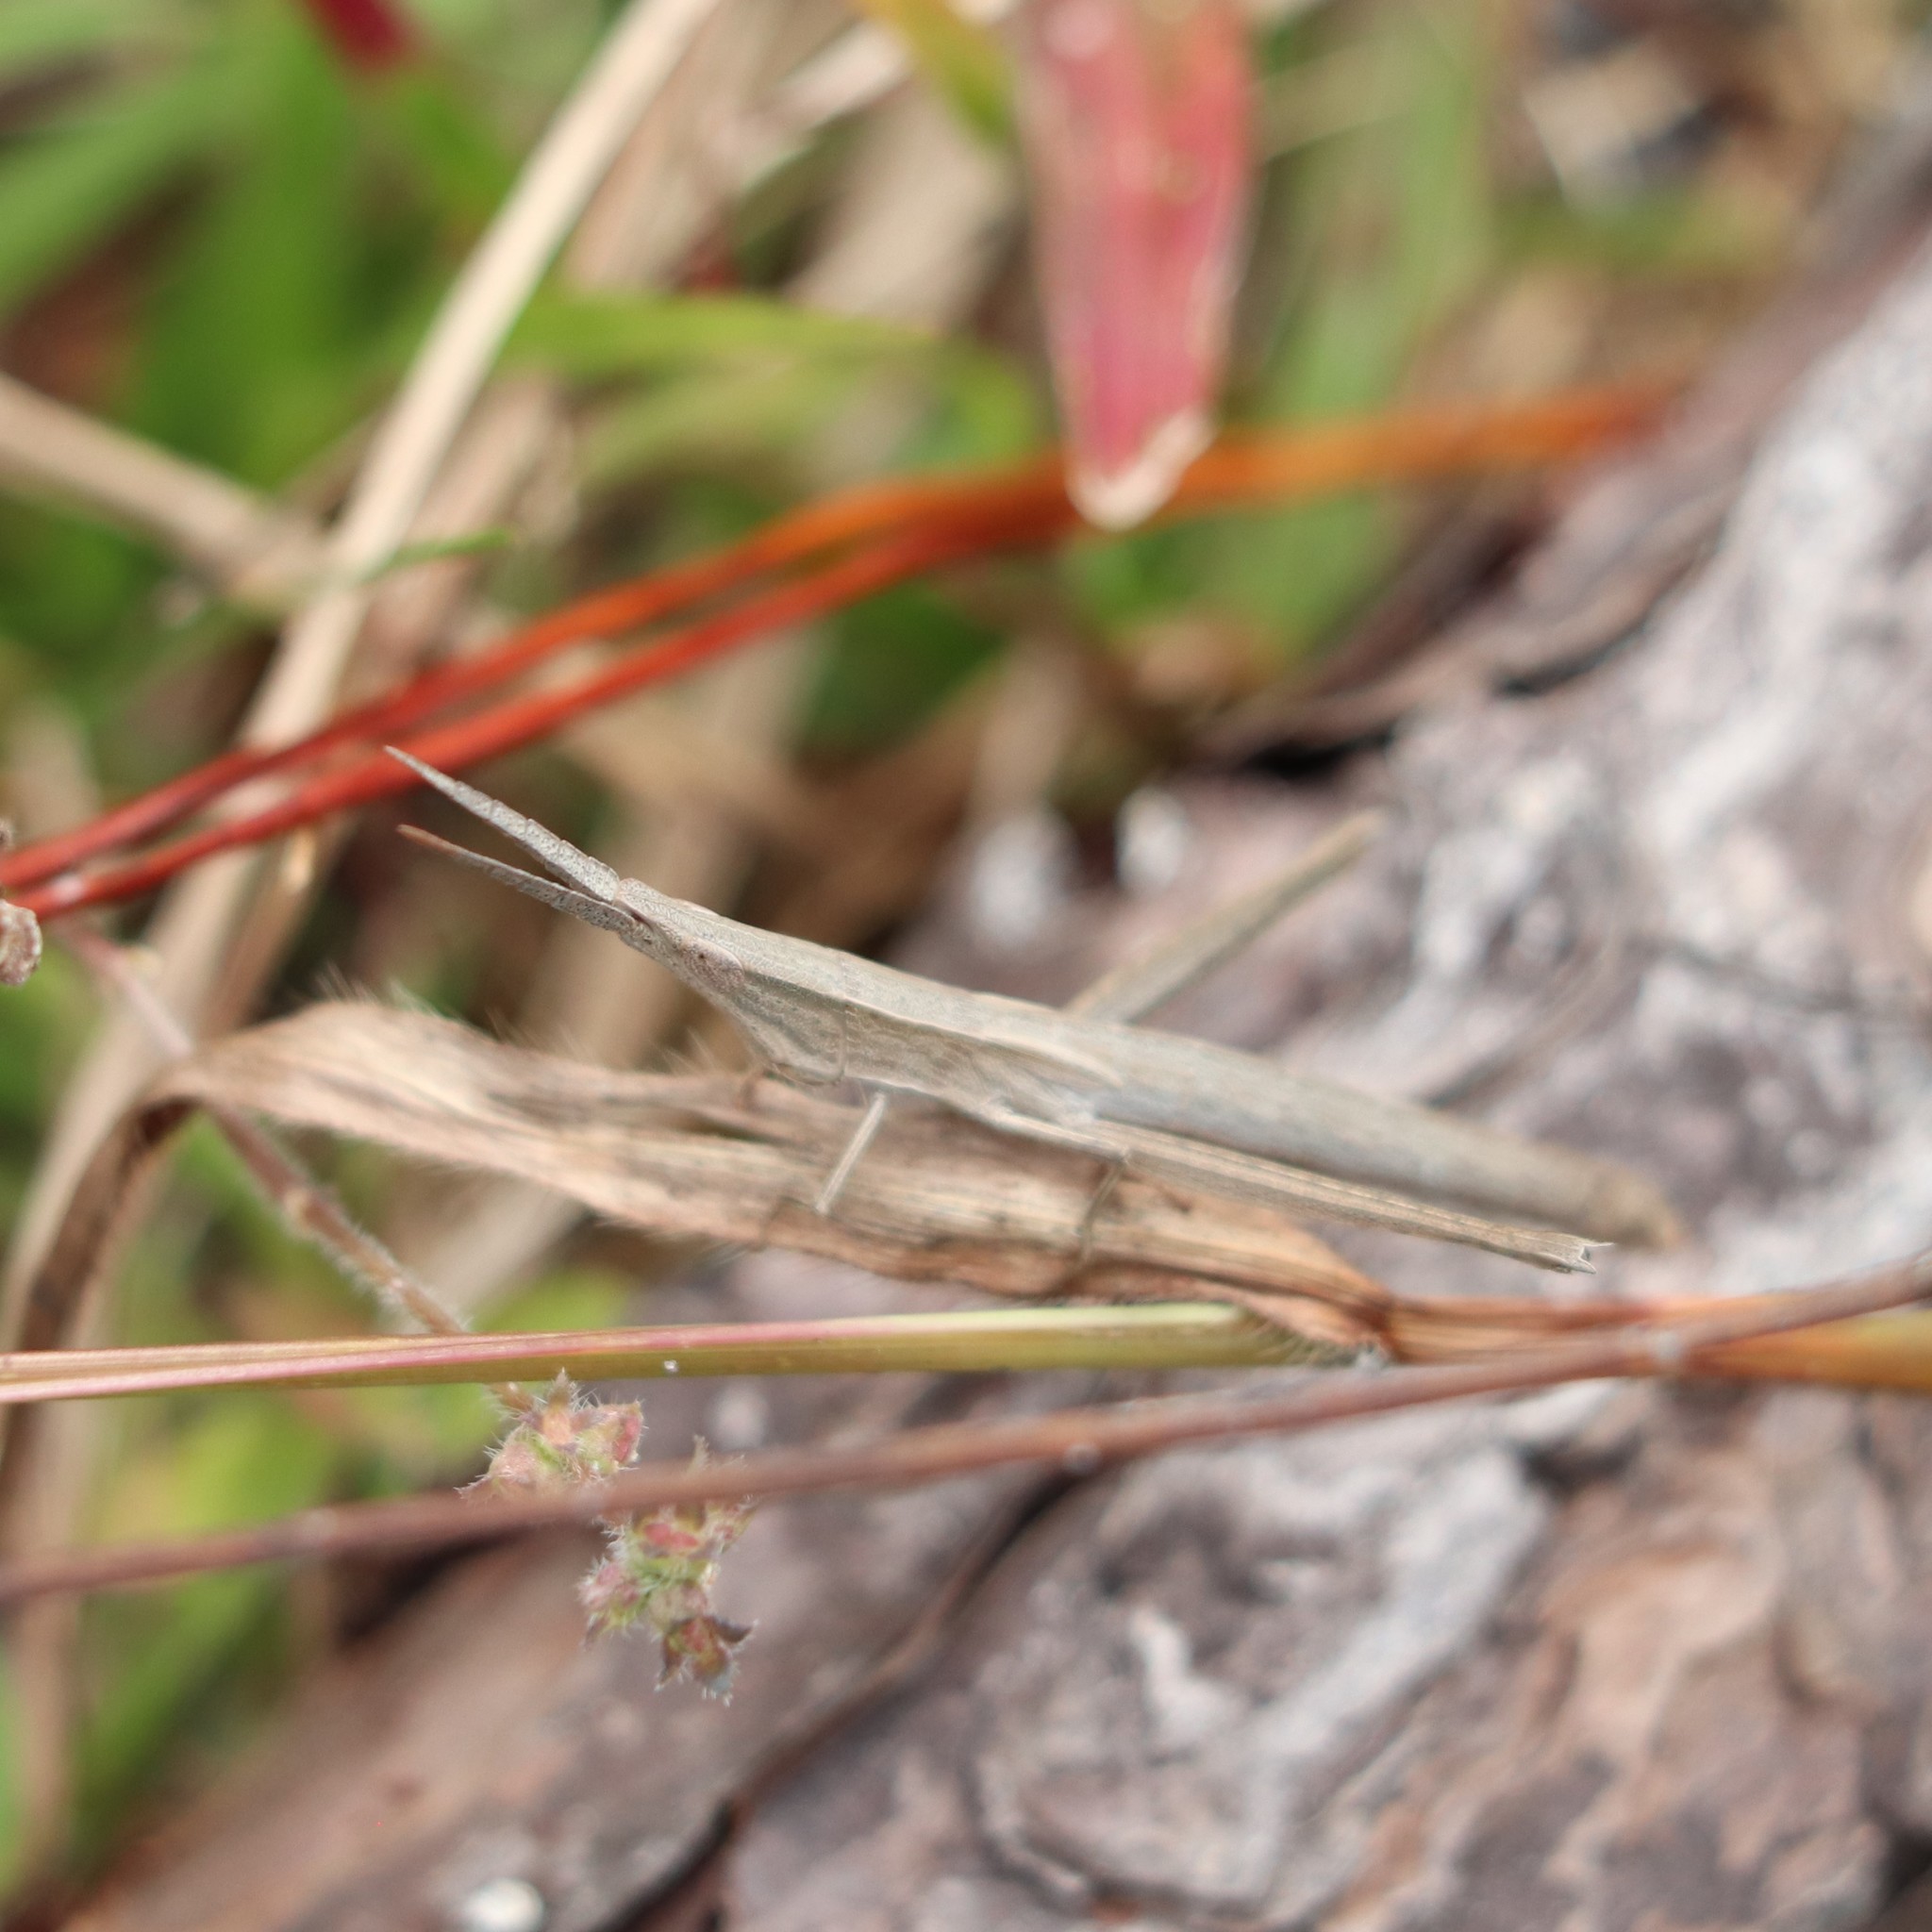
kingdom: Animalia
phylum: Arthropoda
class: Insecta
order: Orthoptera
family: Acrididae
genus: Achurum
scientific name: Achurum carinatum
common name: Long-headed toothpick grasshopper
